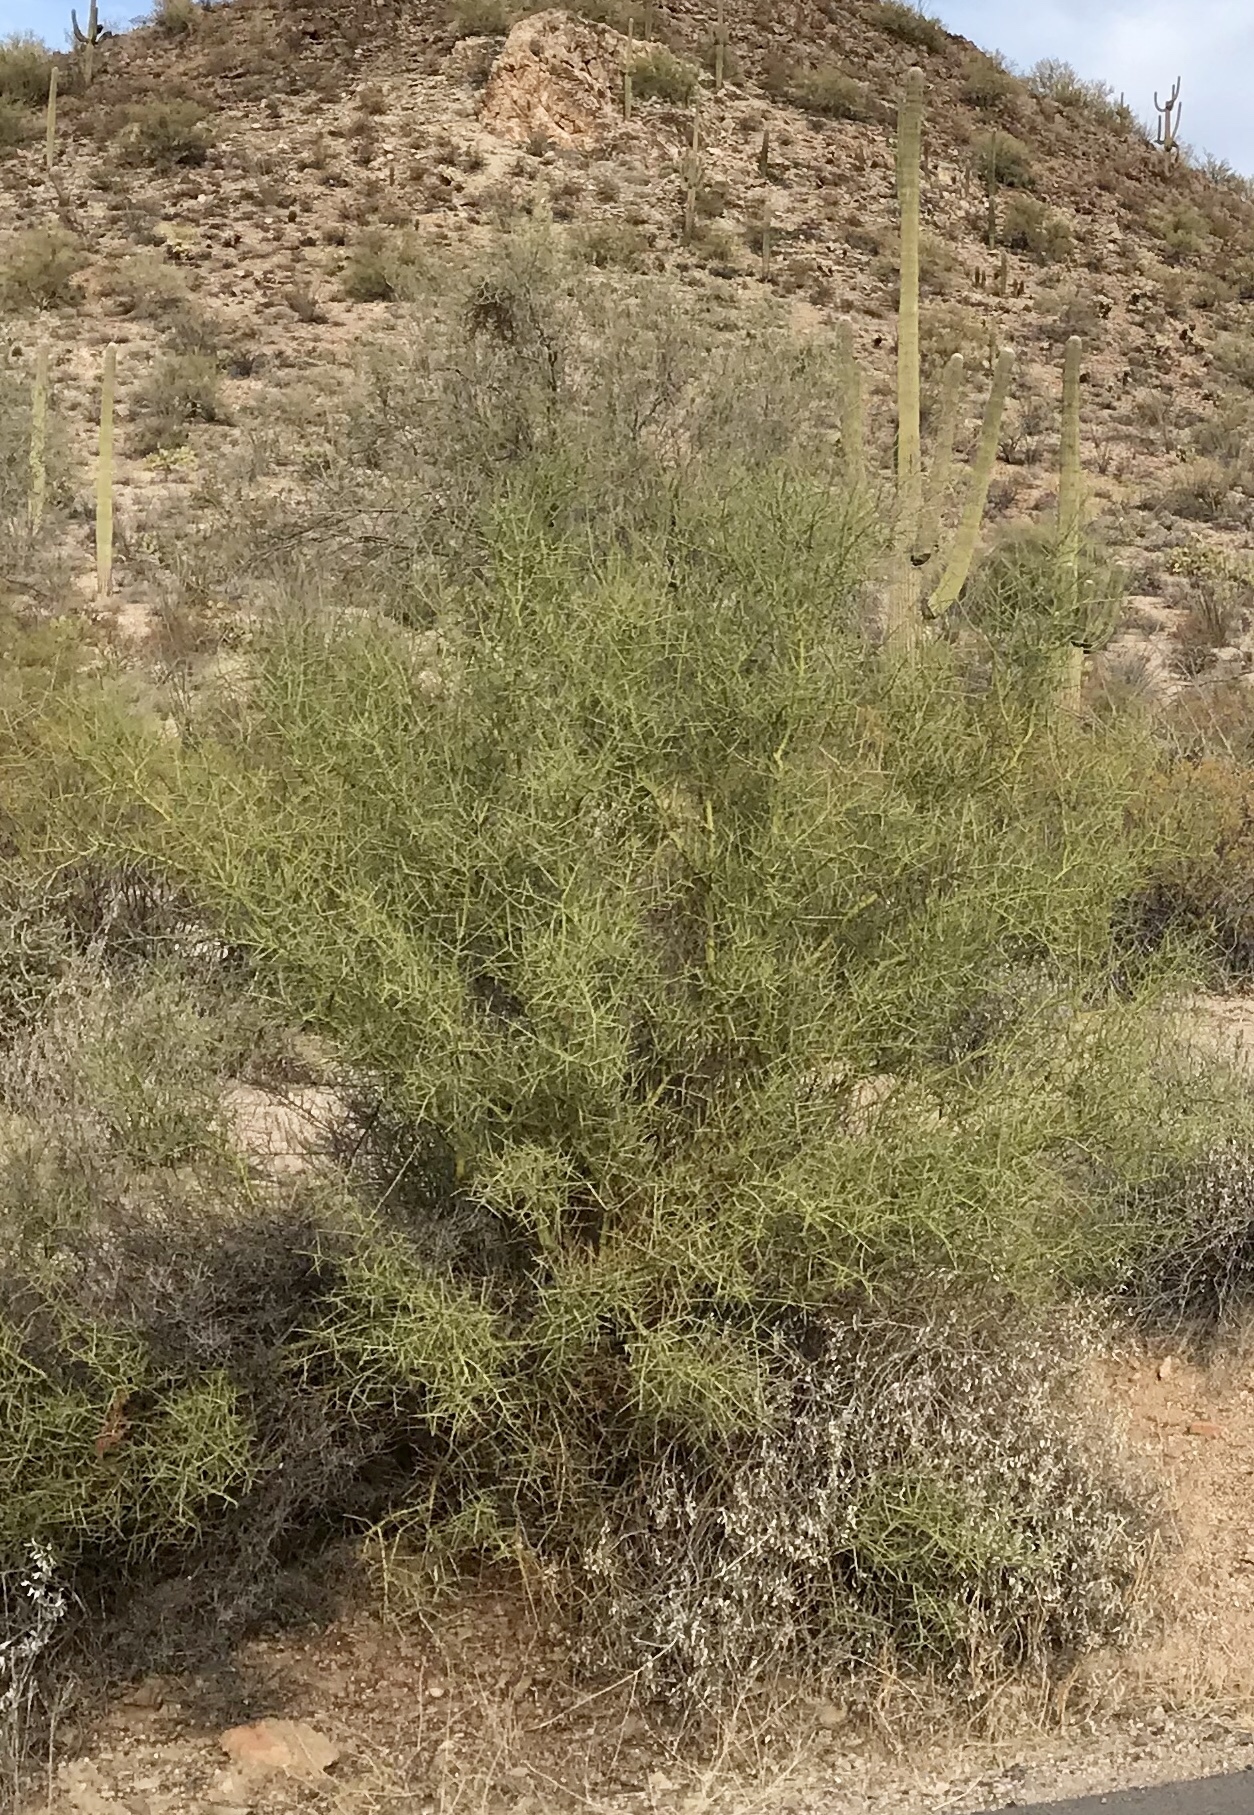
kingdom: Plantae
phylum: Tracheophyta
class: Magnoliopsida
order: Fabales
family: Fabaceae
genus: Parkinsonia
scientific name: Parkinsonia microphylla
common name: Yellow paloverde
